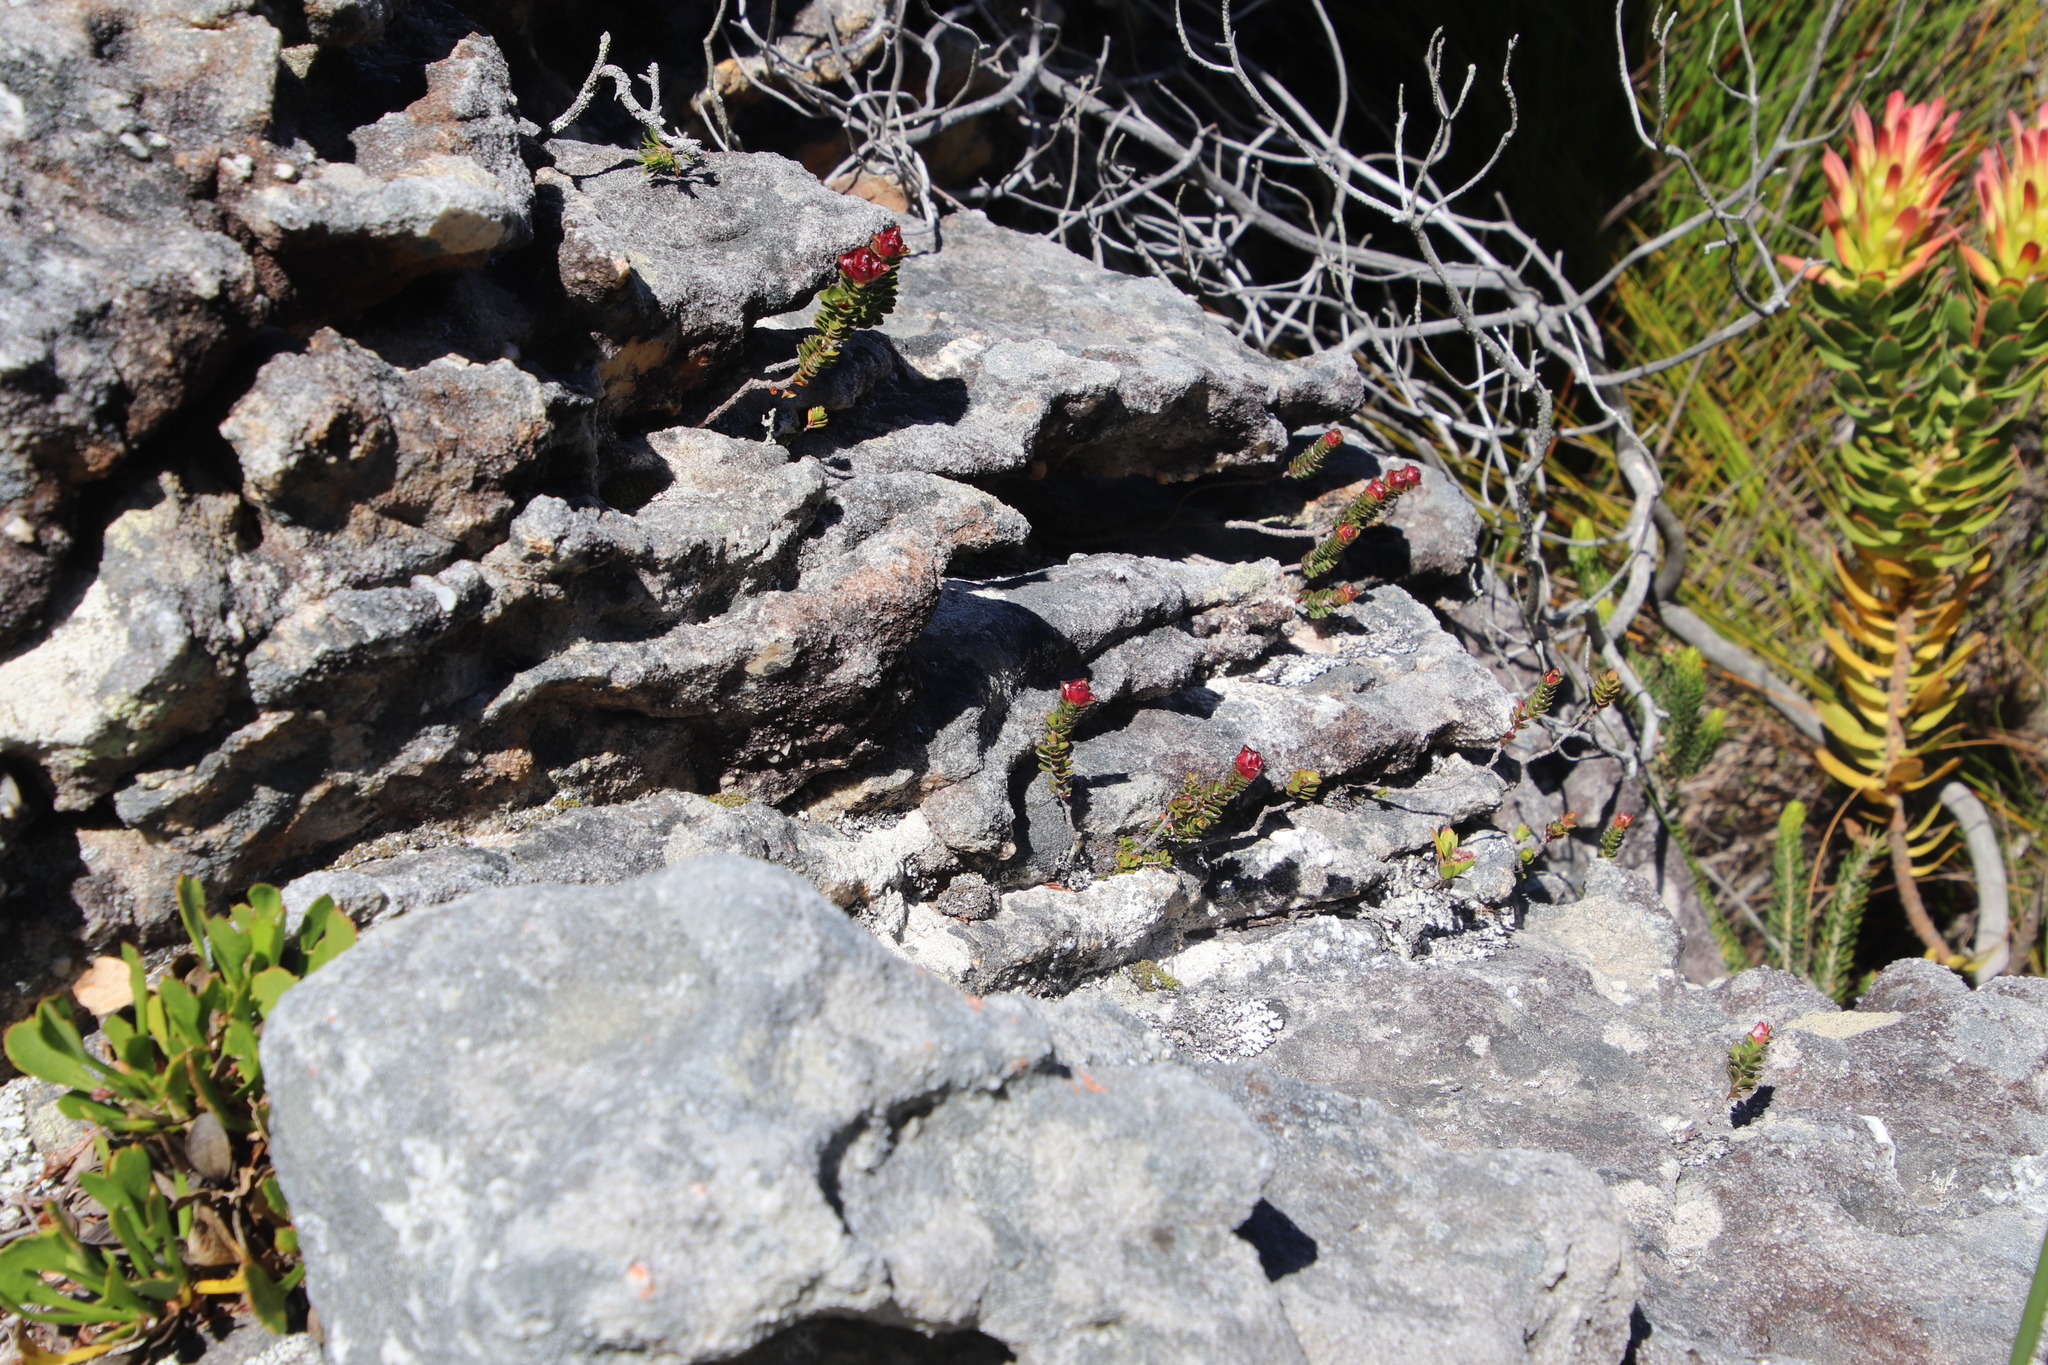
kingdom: Plantae
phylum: Tracheophyta
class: Magnoliopsida
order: Myrtales
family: Penaeaceae
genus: Sonderothamnus
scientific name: Sonderothamnus petraeus
